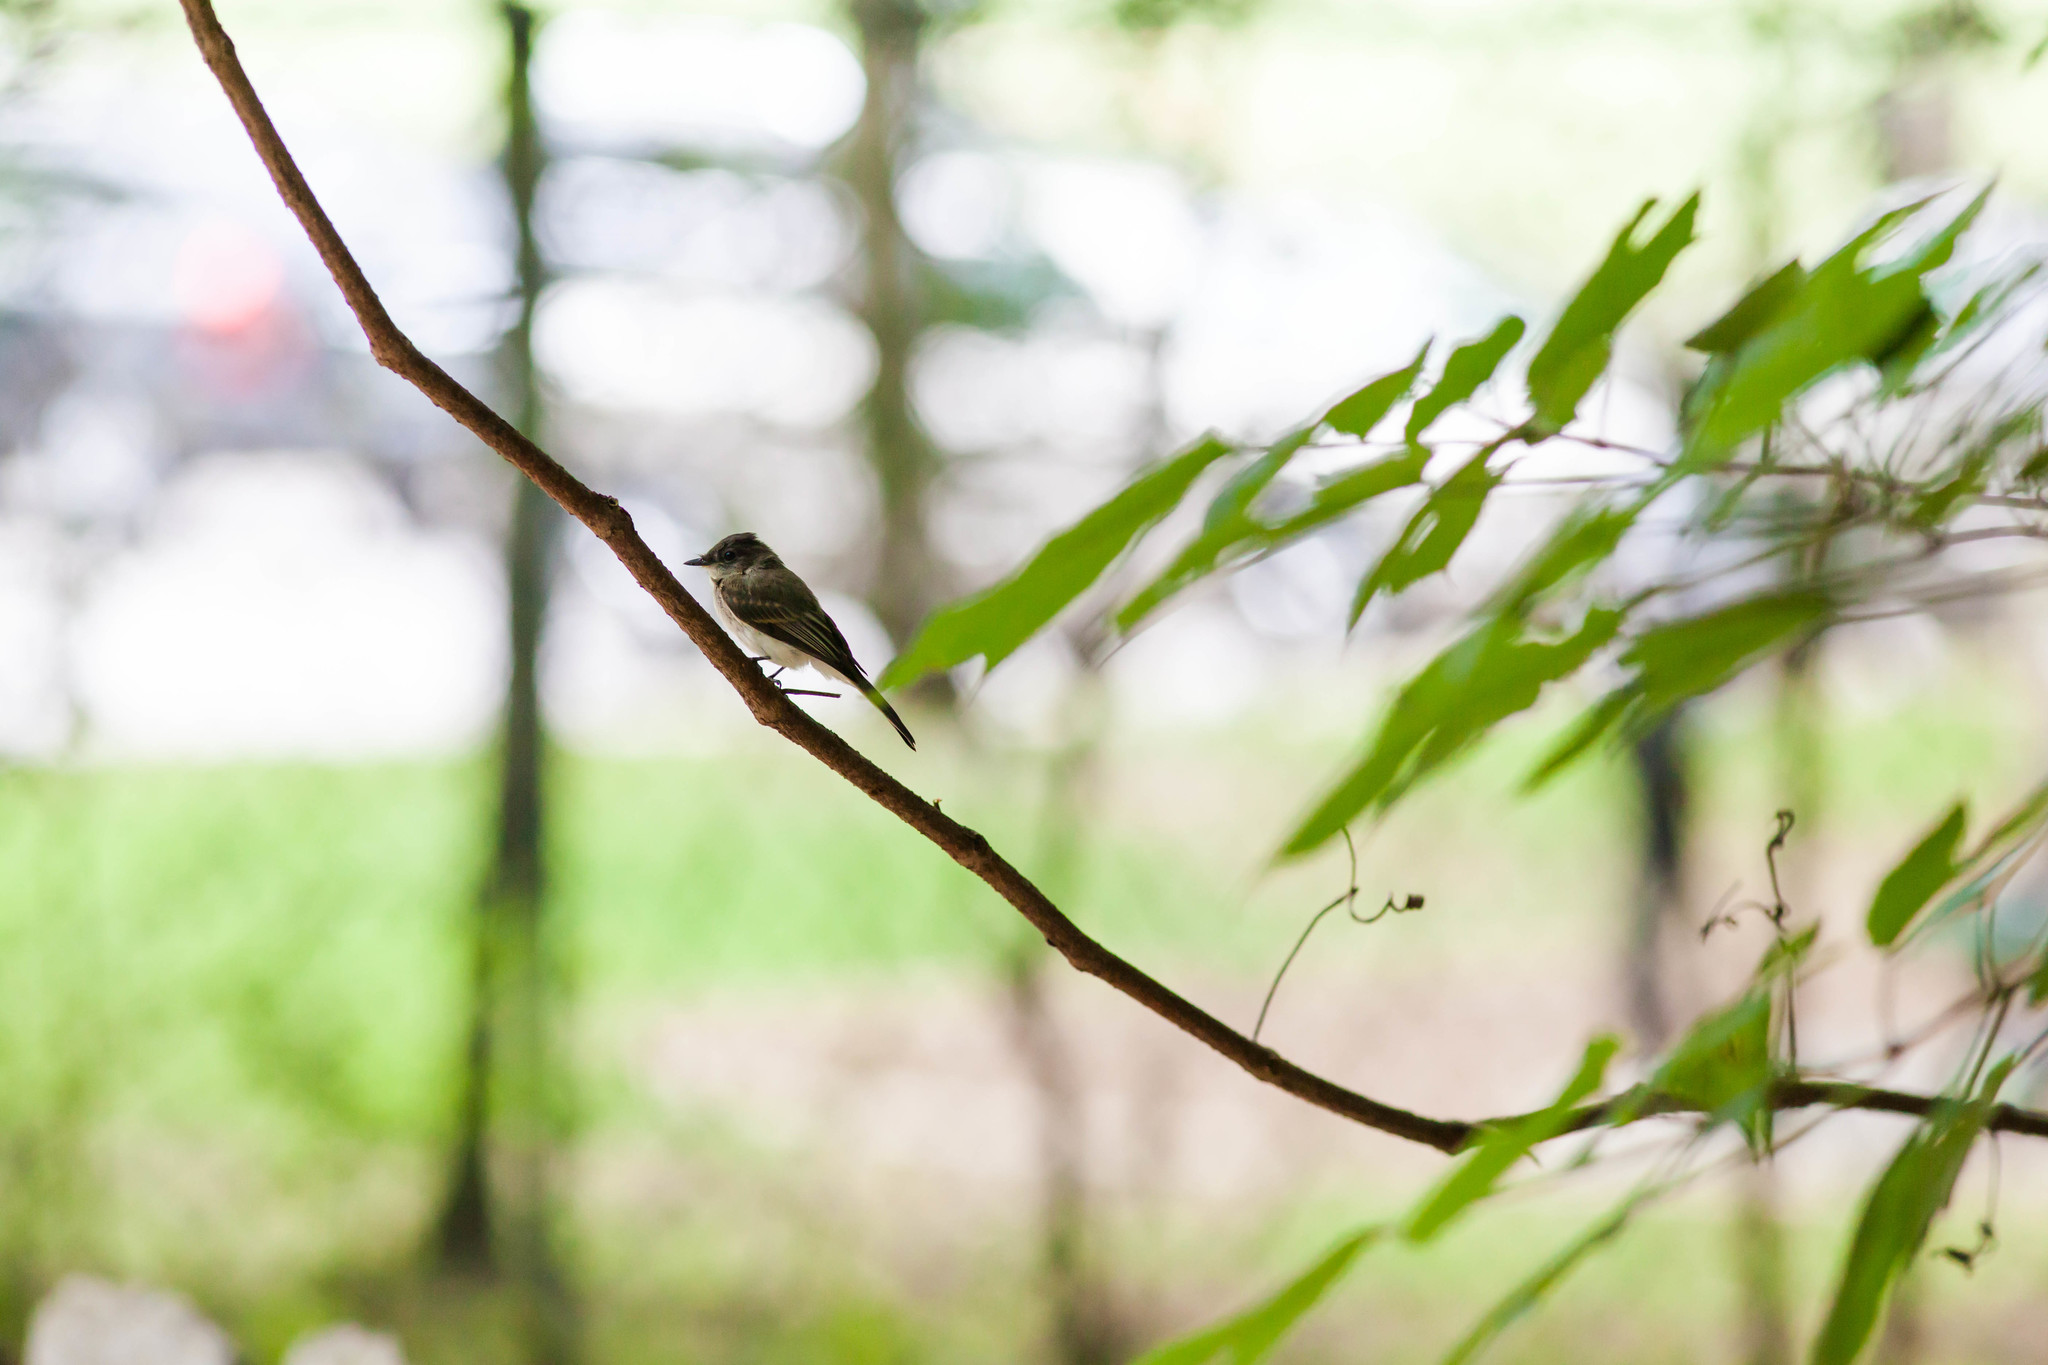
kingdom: Animalia
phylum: Chordata
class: Aves
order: Passeriformes
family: Tyrannidae
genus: Sayornis
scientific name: Sayornis phoebe
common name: Eastern phoebe
